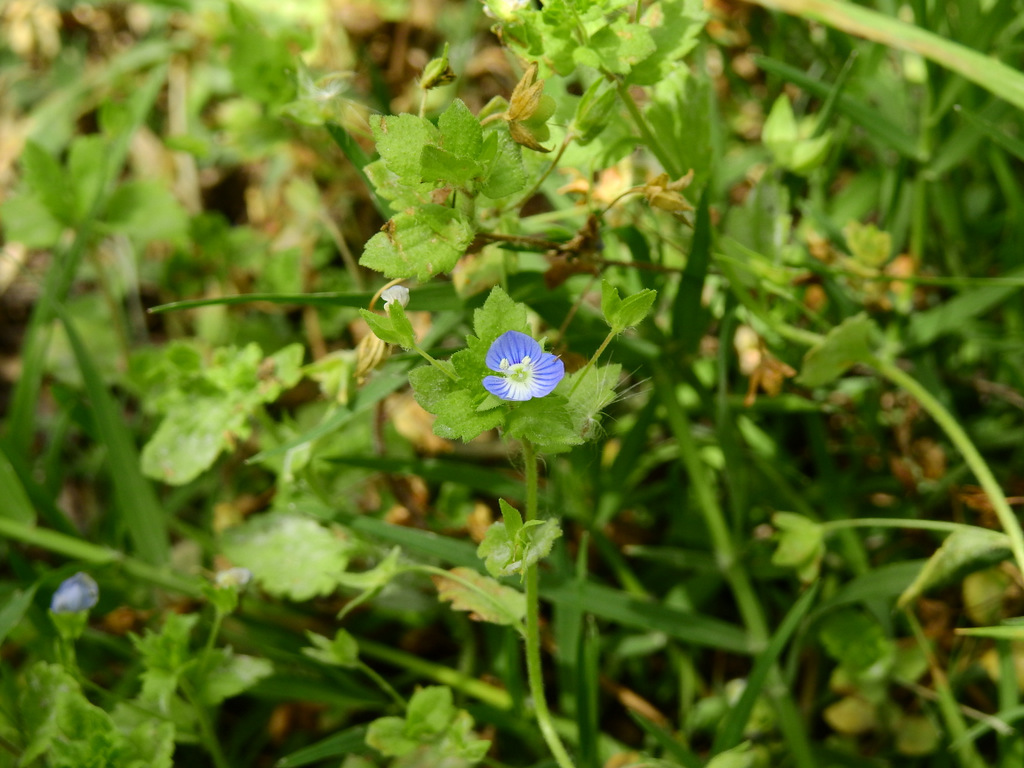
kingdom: Plantae
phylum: Tracheophyta
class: Magnoliopsida
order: Lamiales
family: Plantaginaceae
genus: Veronica
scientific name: Veronica persica
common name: Common field-speedwell
